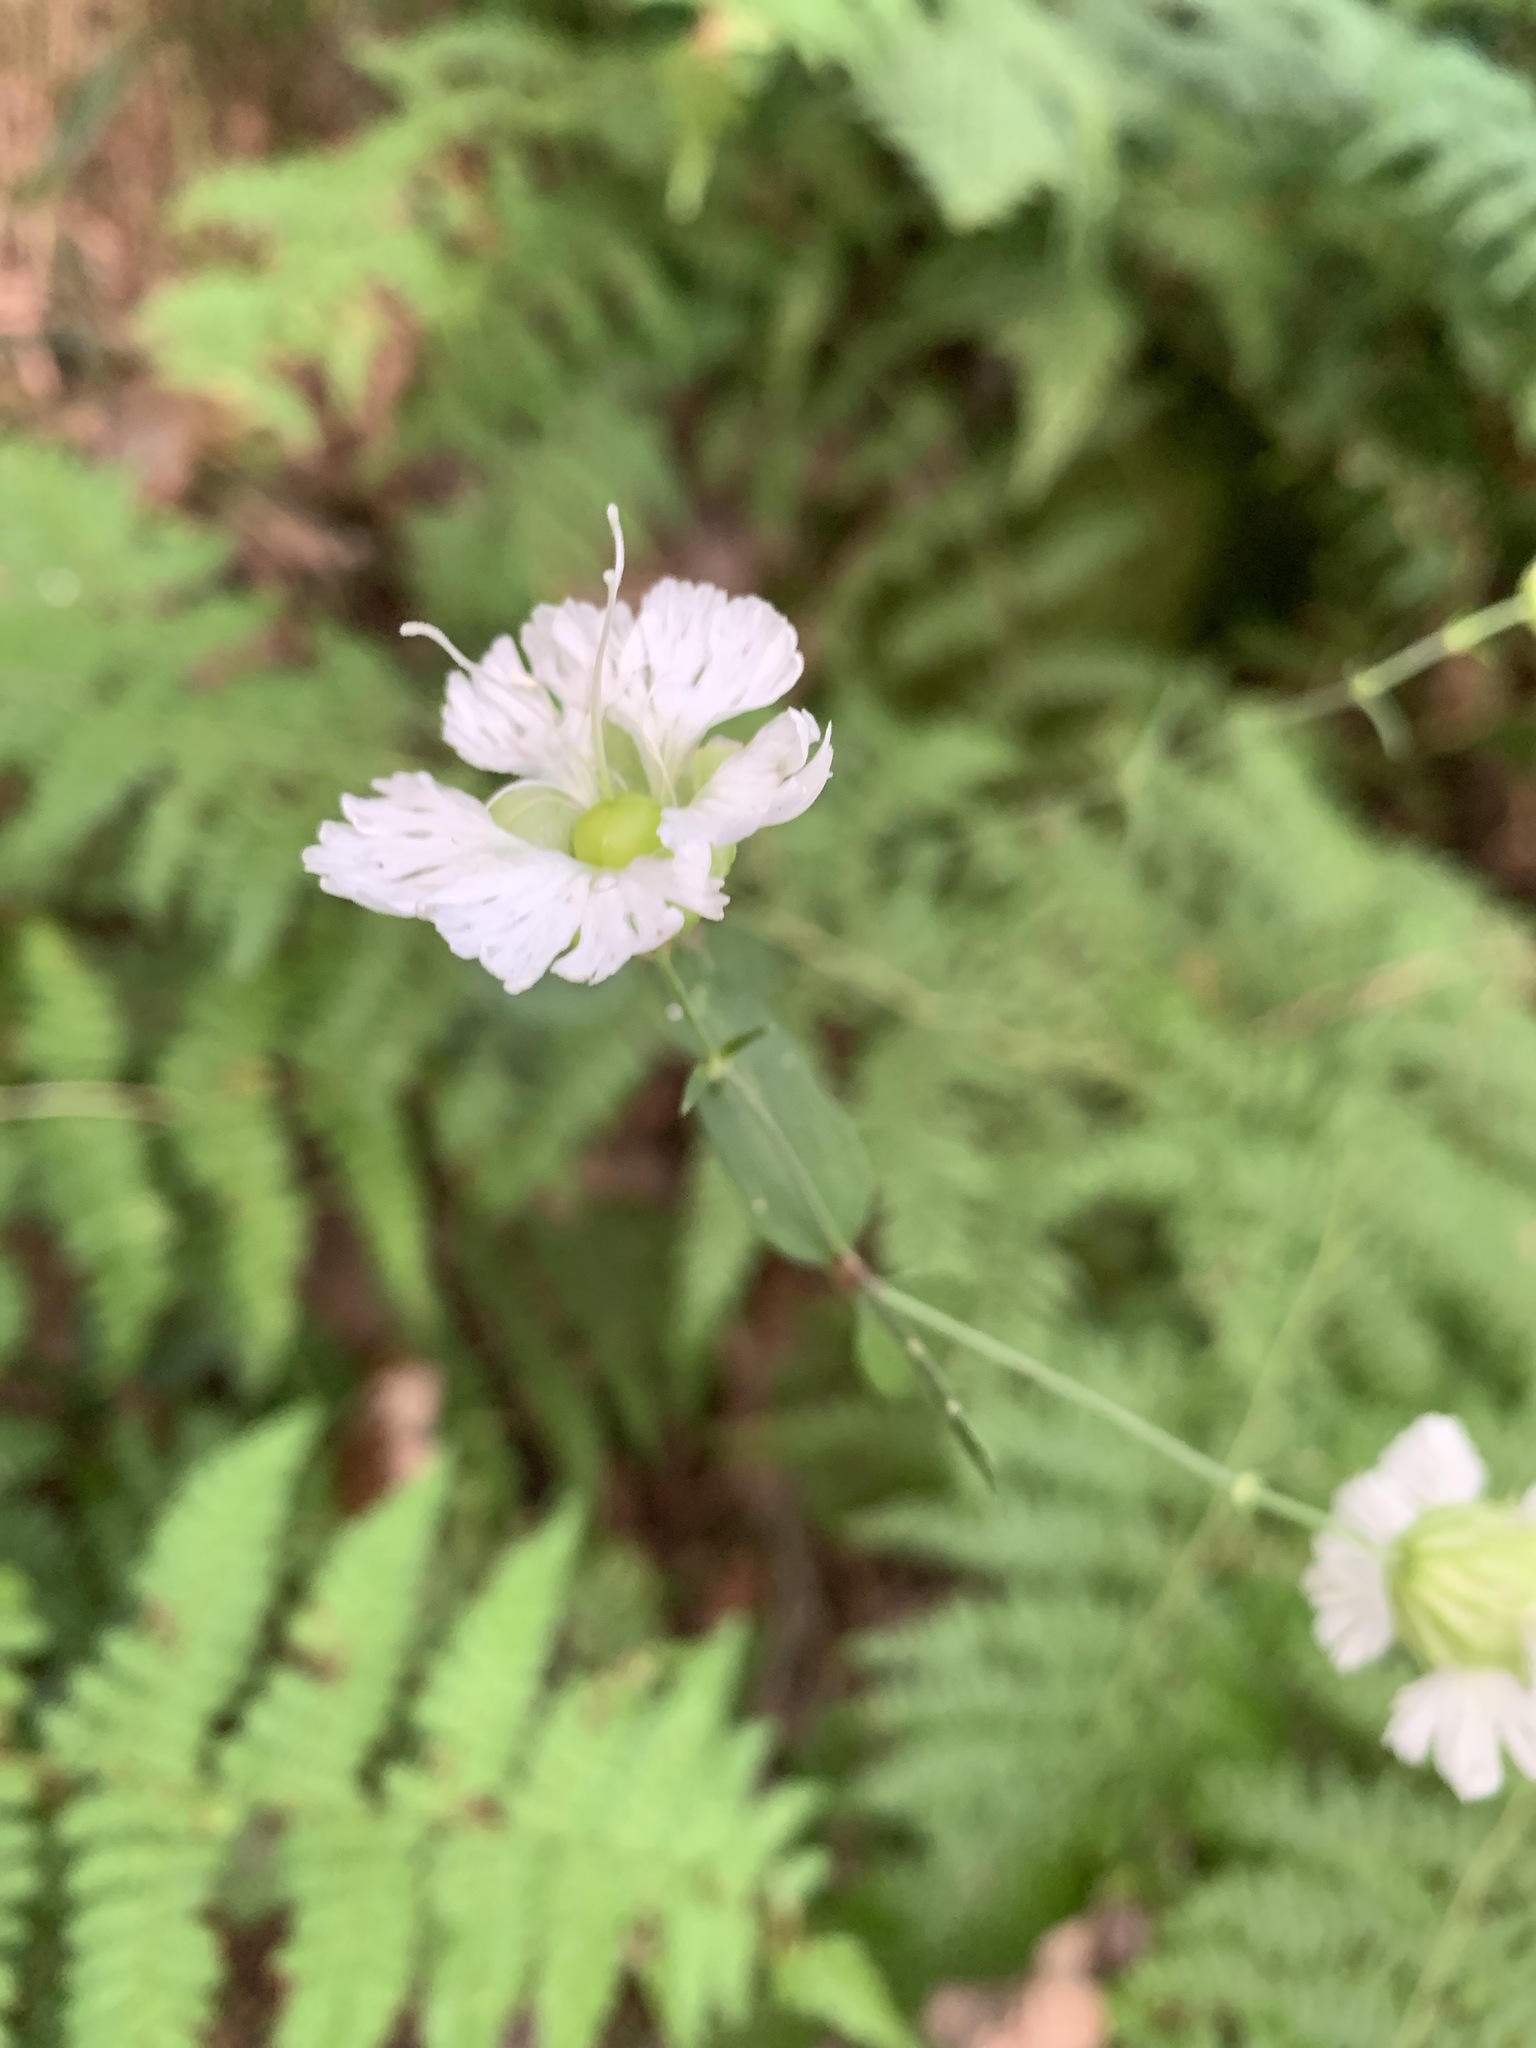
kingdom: Plantae
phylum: Tracheophyta
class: Magnoliopsida
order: Caryophyllales
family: Caryophyllaceae
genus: Silene
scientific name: Silene stellata
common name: Starry campion
